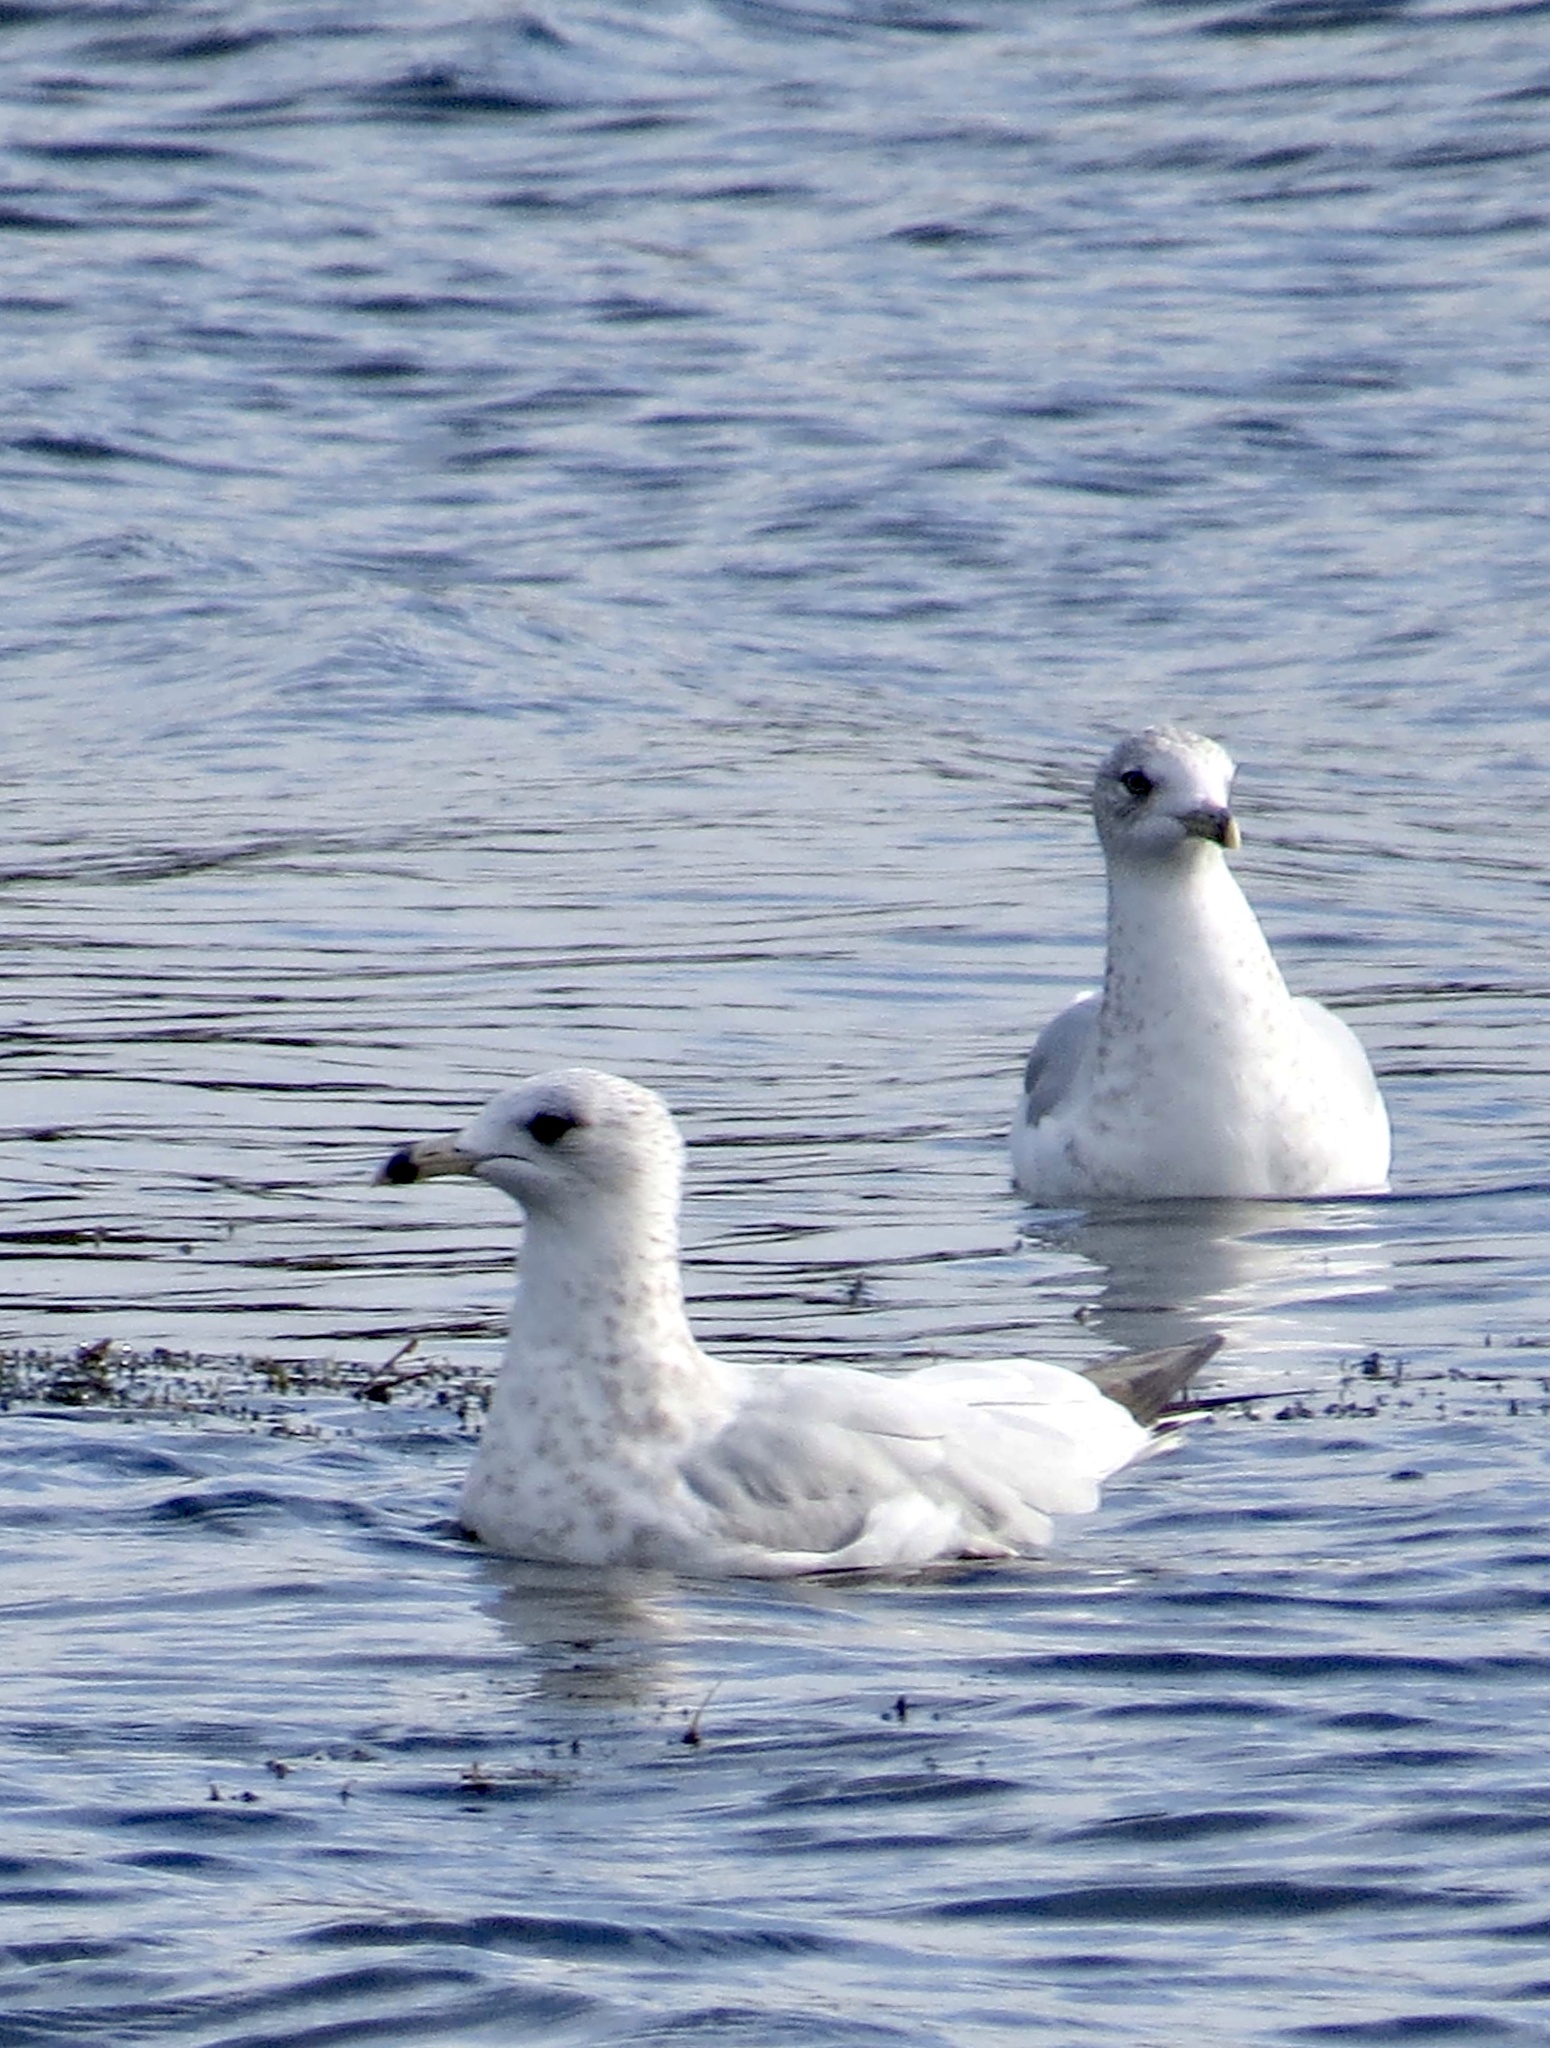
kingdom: Animalia
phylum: Chordata
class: Aves
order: Charadriiformes
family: Laridae
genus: Larus
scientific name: Larus delawarensis
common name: Ring-billed gull
